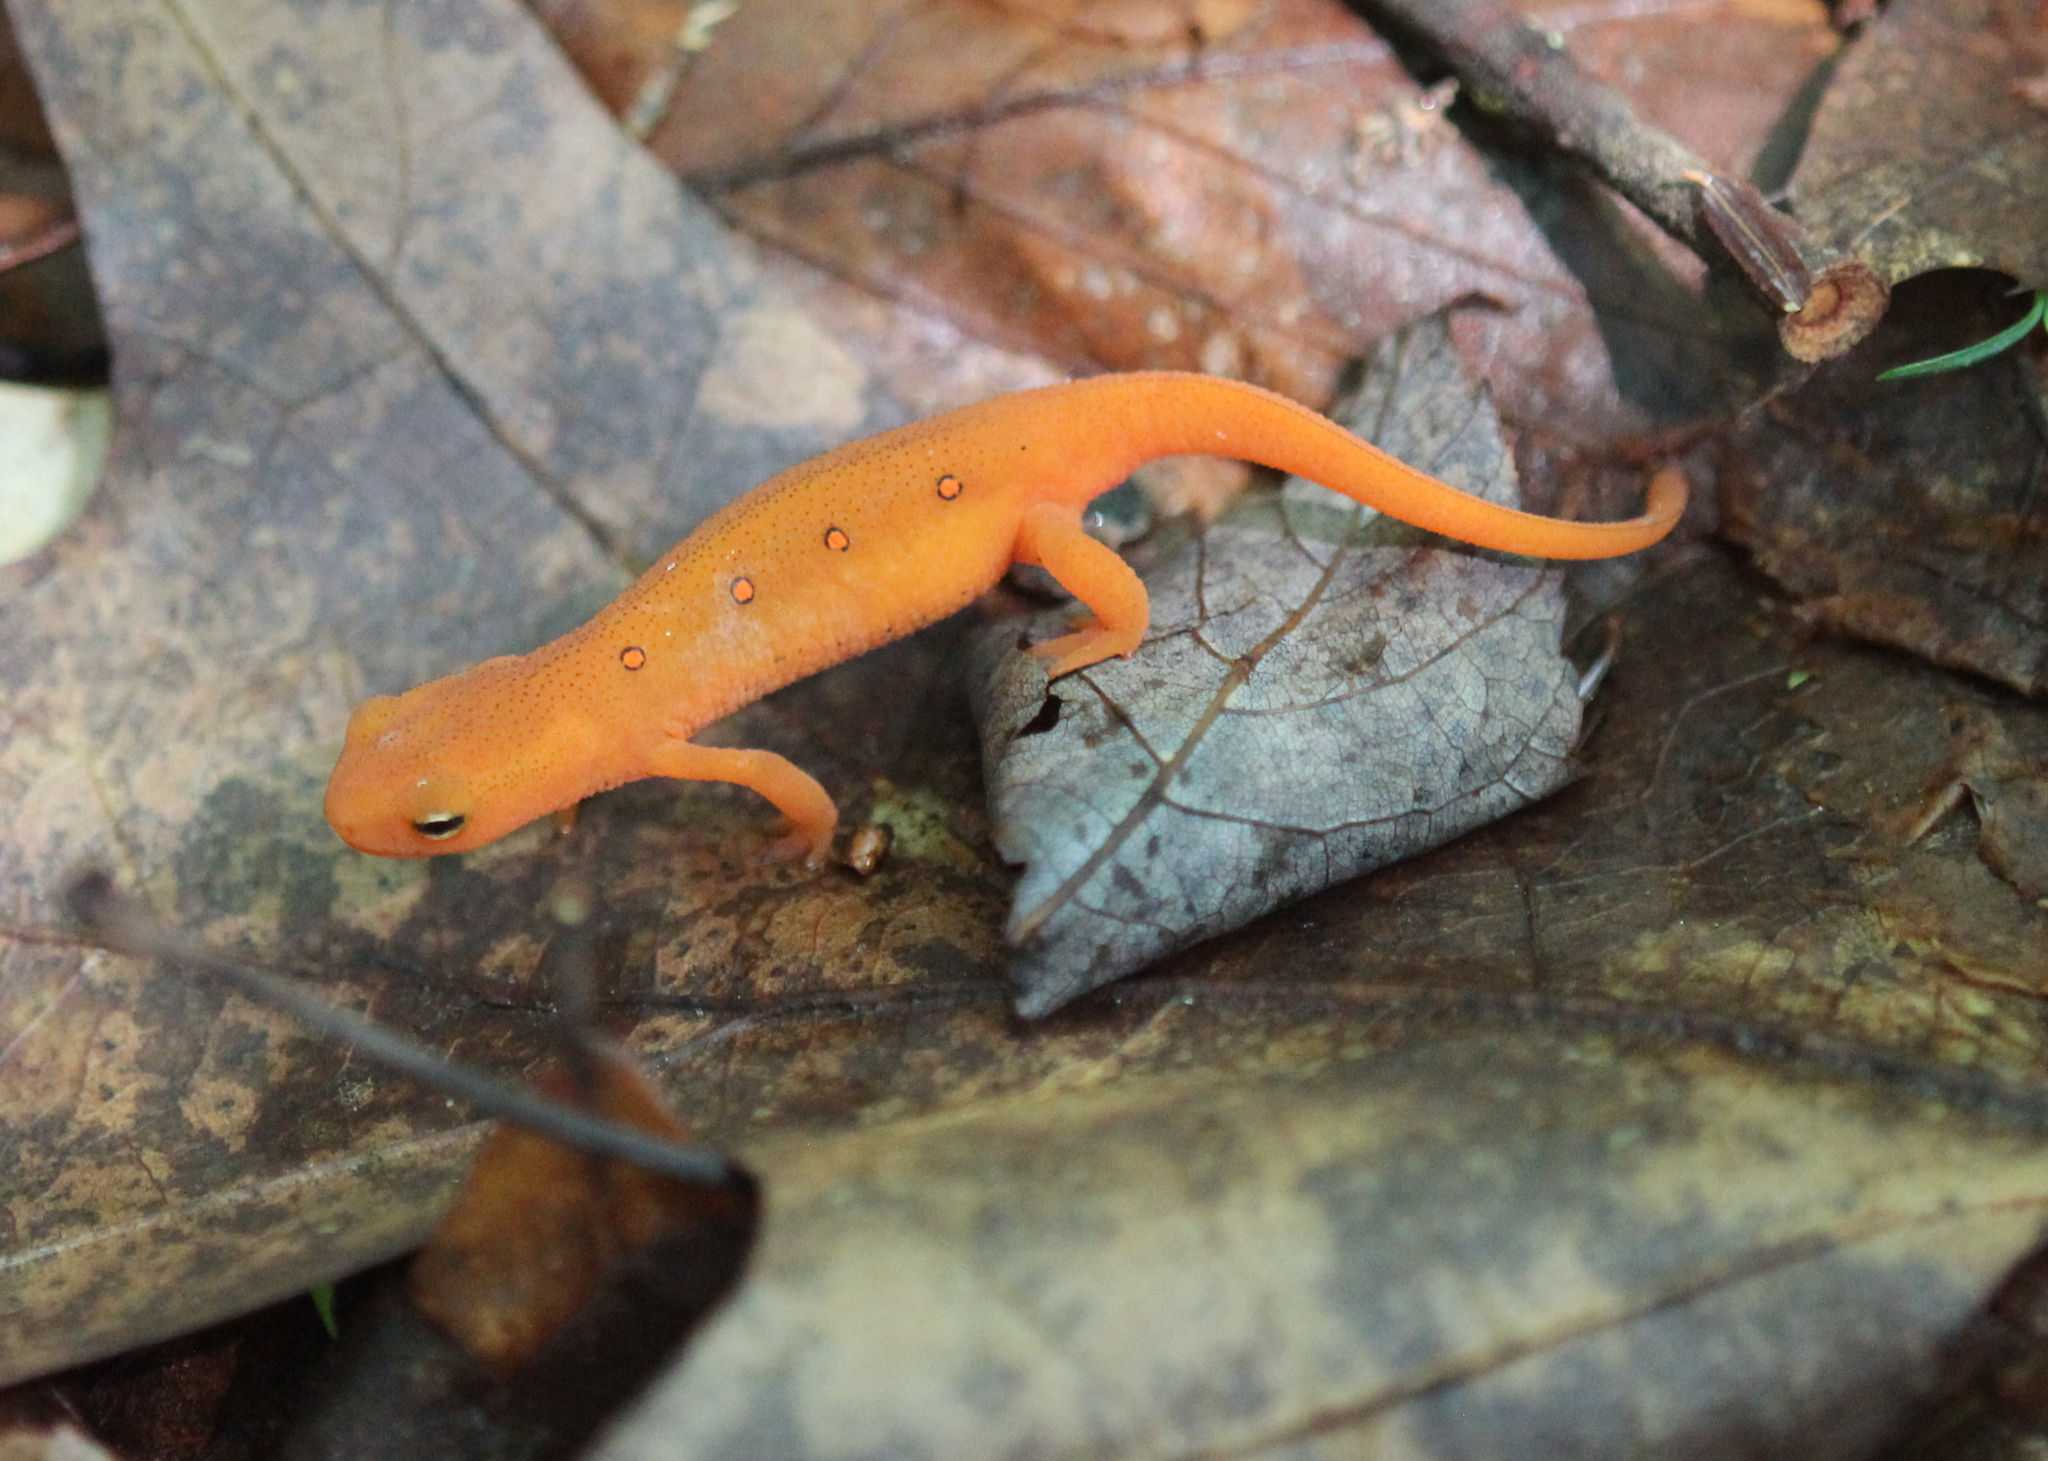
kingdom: Animalia
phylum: Chordata
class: Amphibia
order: Caudata
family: Salamandridae
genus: Notophthalmus
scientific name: Notophthalmus viridescens
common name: Eastern newt
